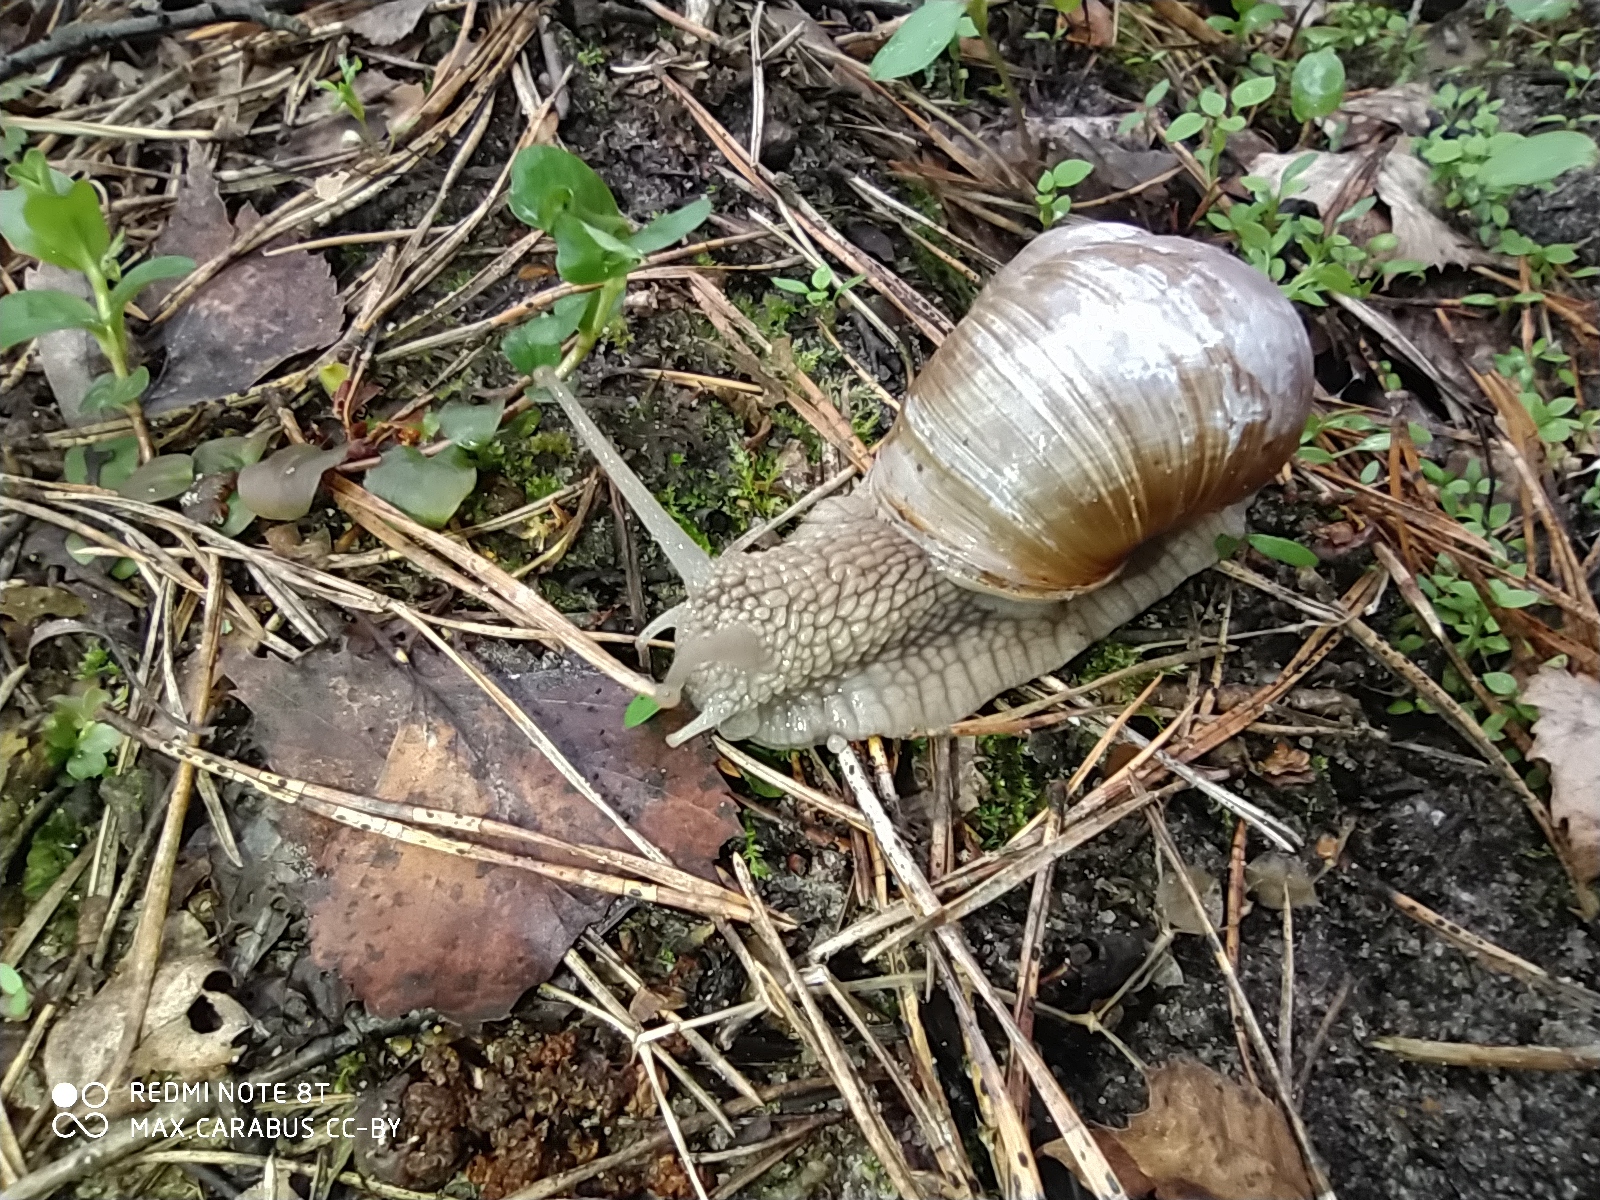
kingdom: Animalia
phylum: Mollusca
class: Gastropoda
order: Stylommatophora
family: Helicidae
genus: Helix
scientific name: Helix pomatia
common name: Roman snail
